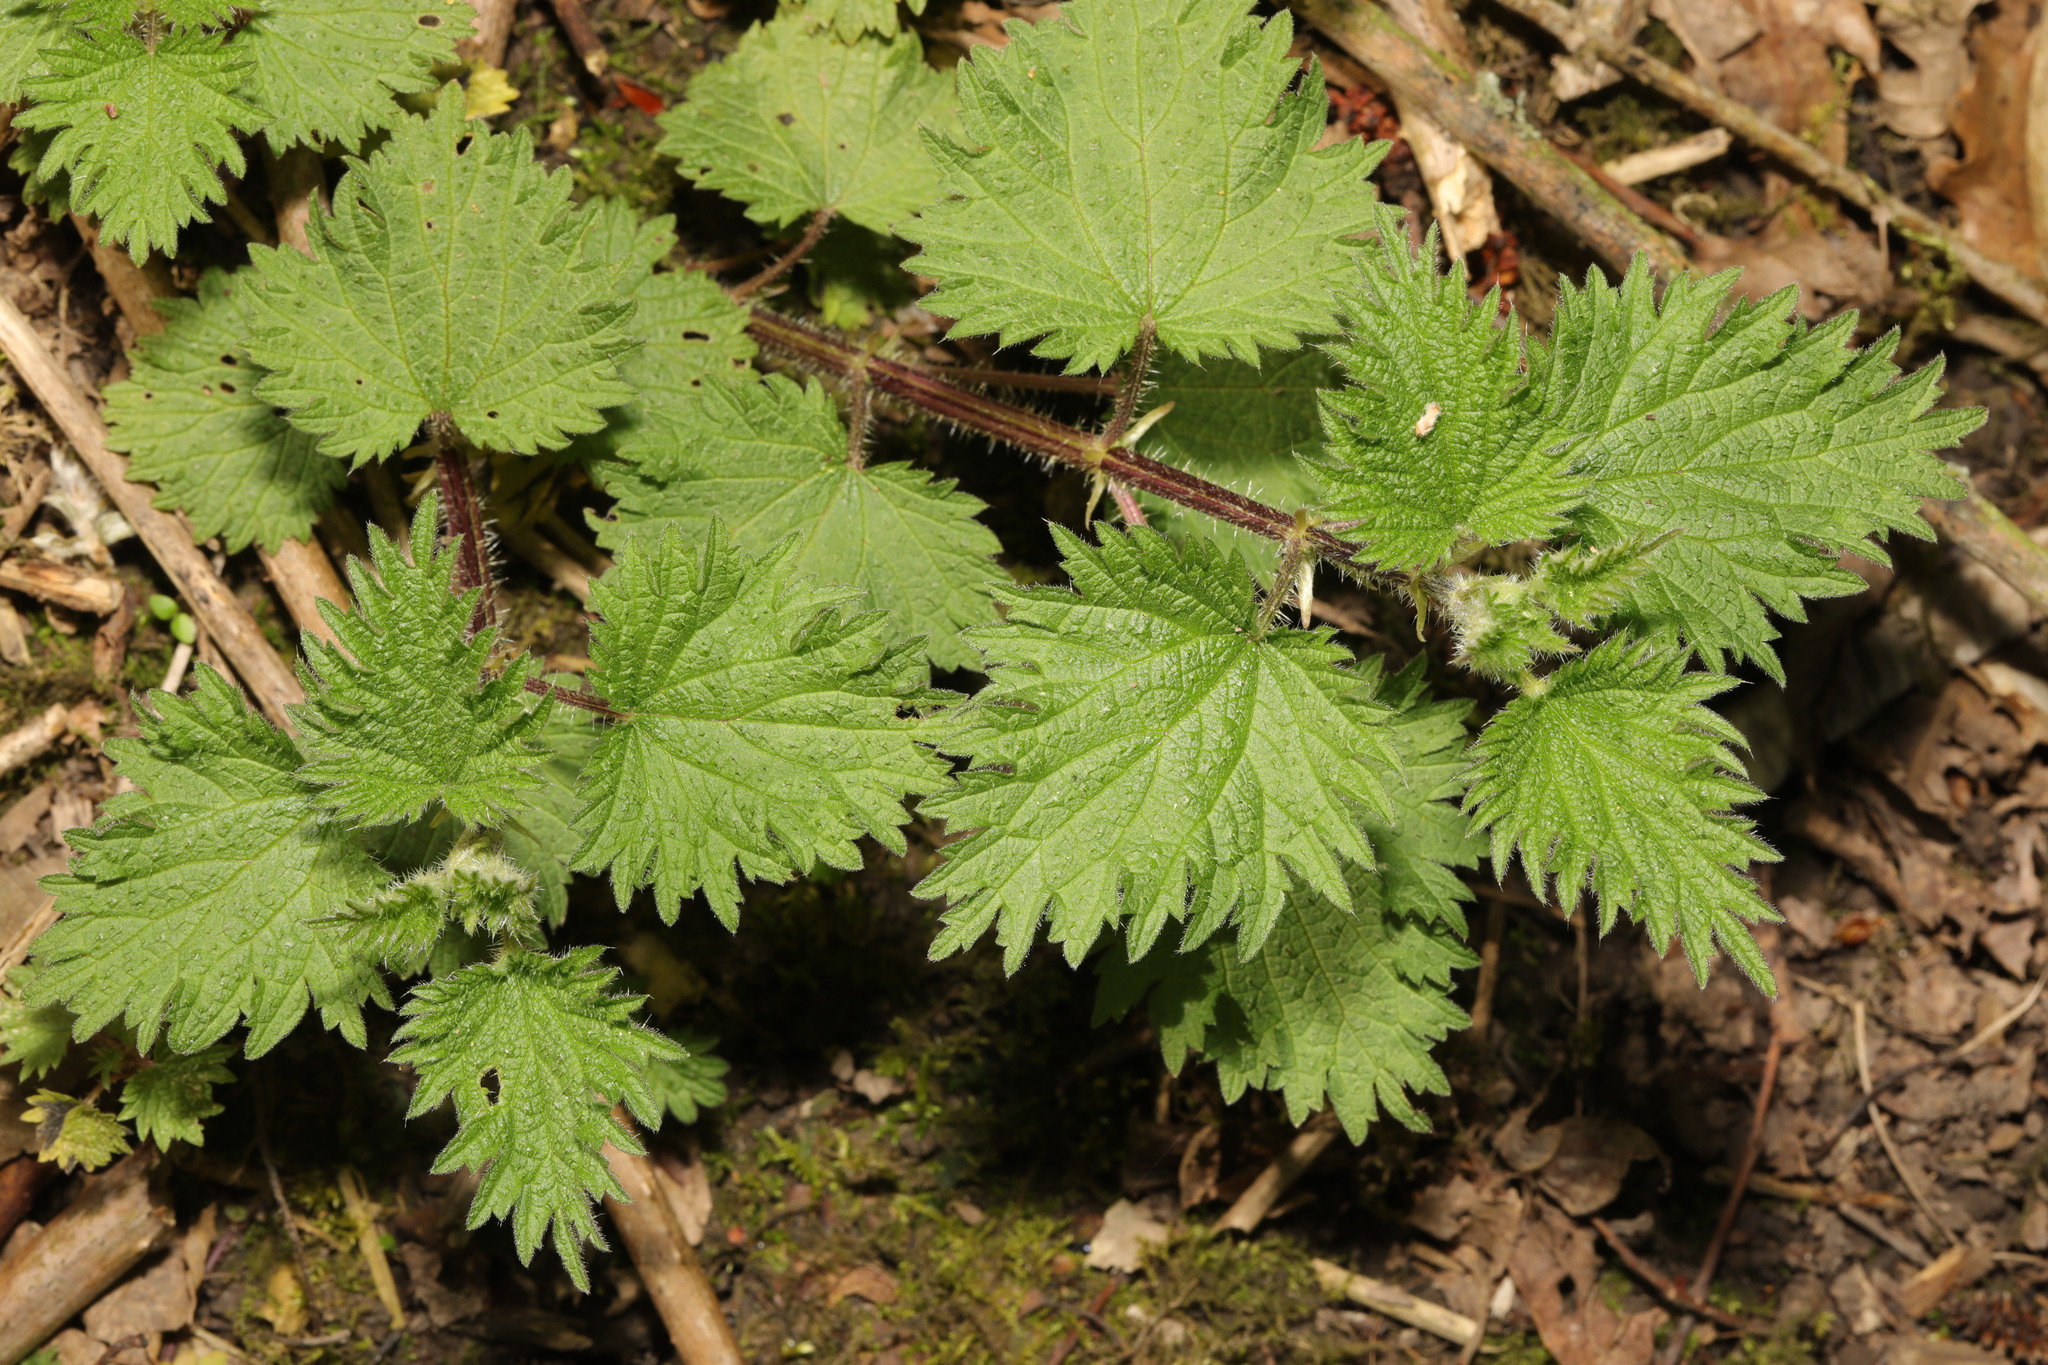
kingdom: Plantae
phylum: Tracheophyta
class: Magnoliopsida
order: Rosales
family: Urticaceae
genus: Urtica
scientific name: Urtica dioica
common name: Common nettle
